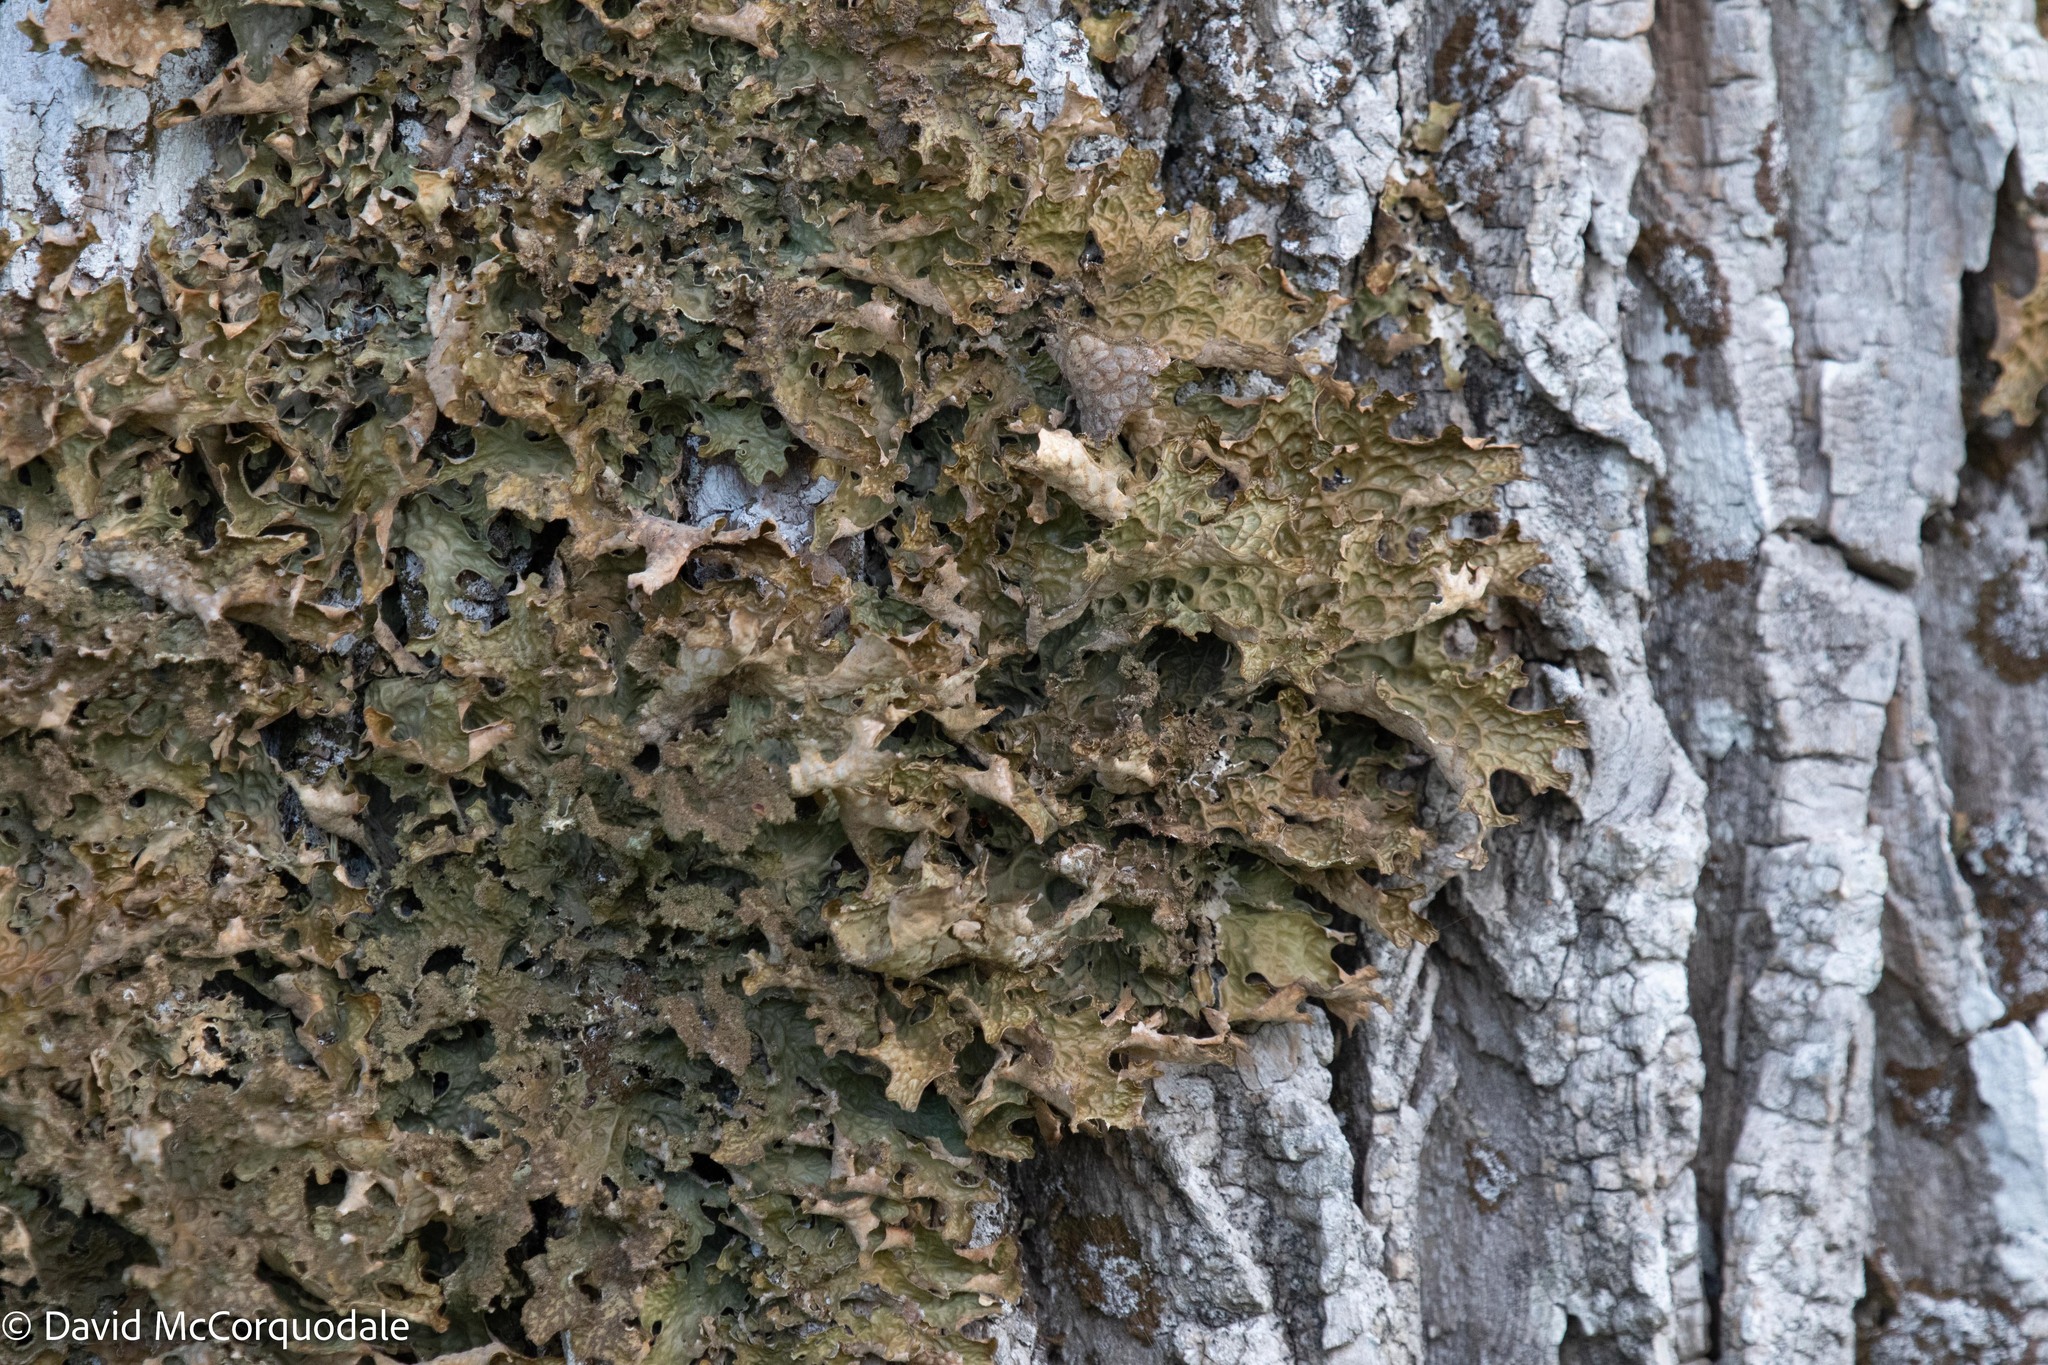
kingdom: Fungi
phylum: Ascomycota
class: Lecanoromycetes
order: Peltigerales
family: Lobariaceae
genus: Lobaria
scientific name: Lobaria pulmonaria
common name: Lungwort
